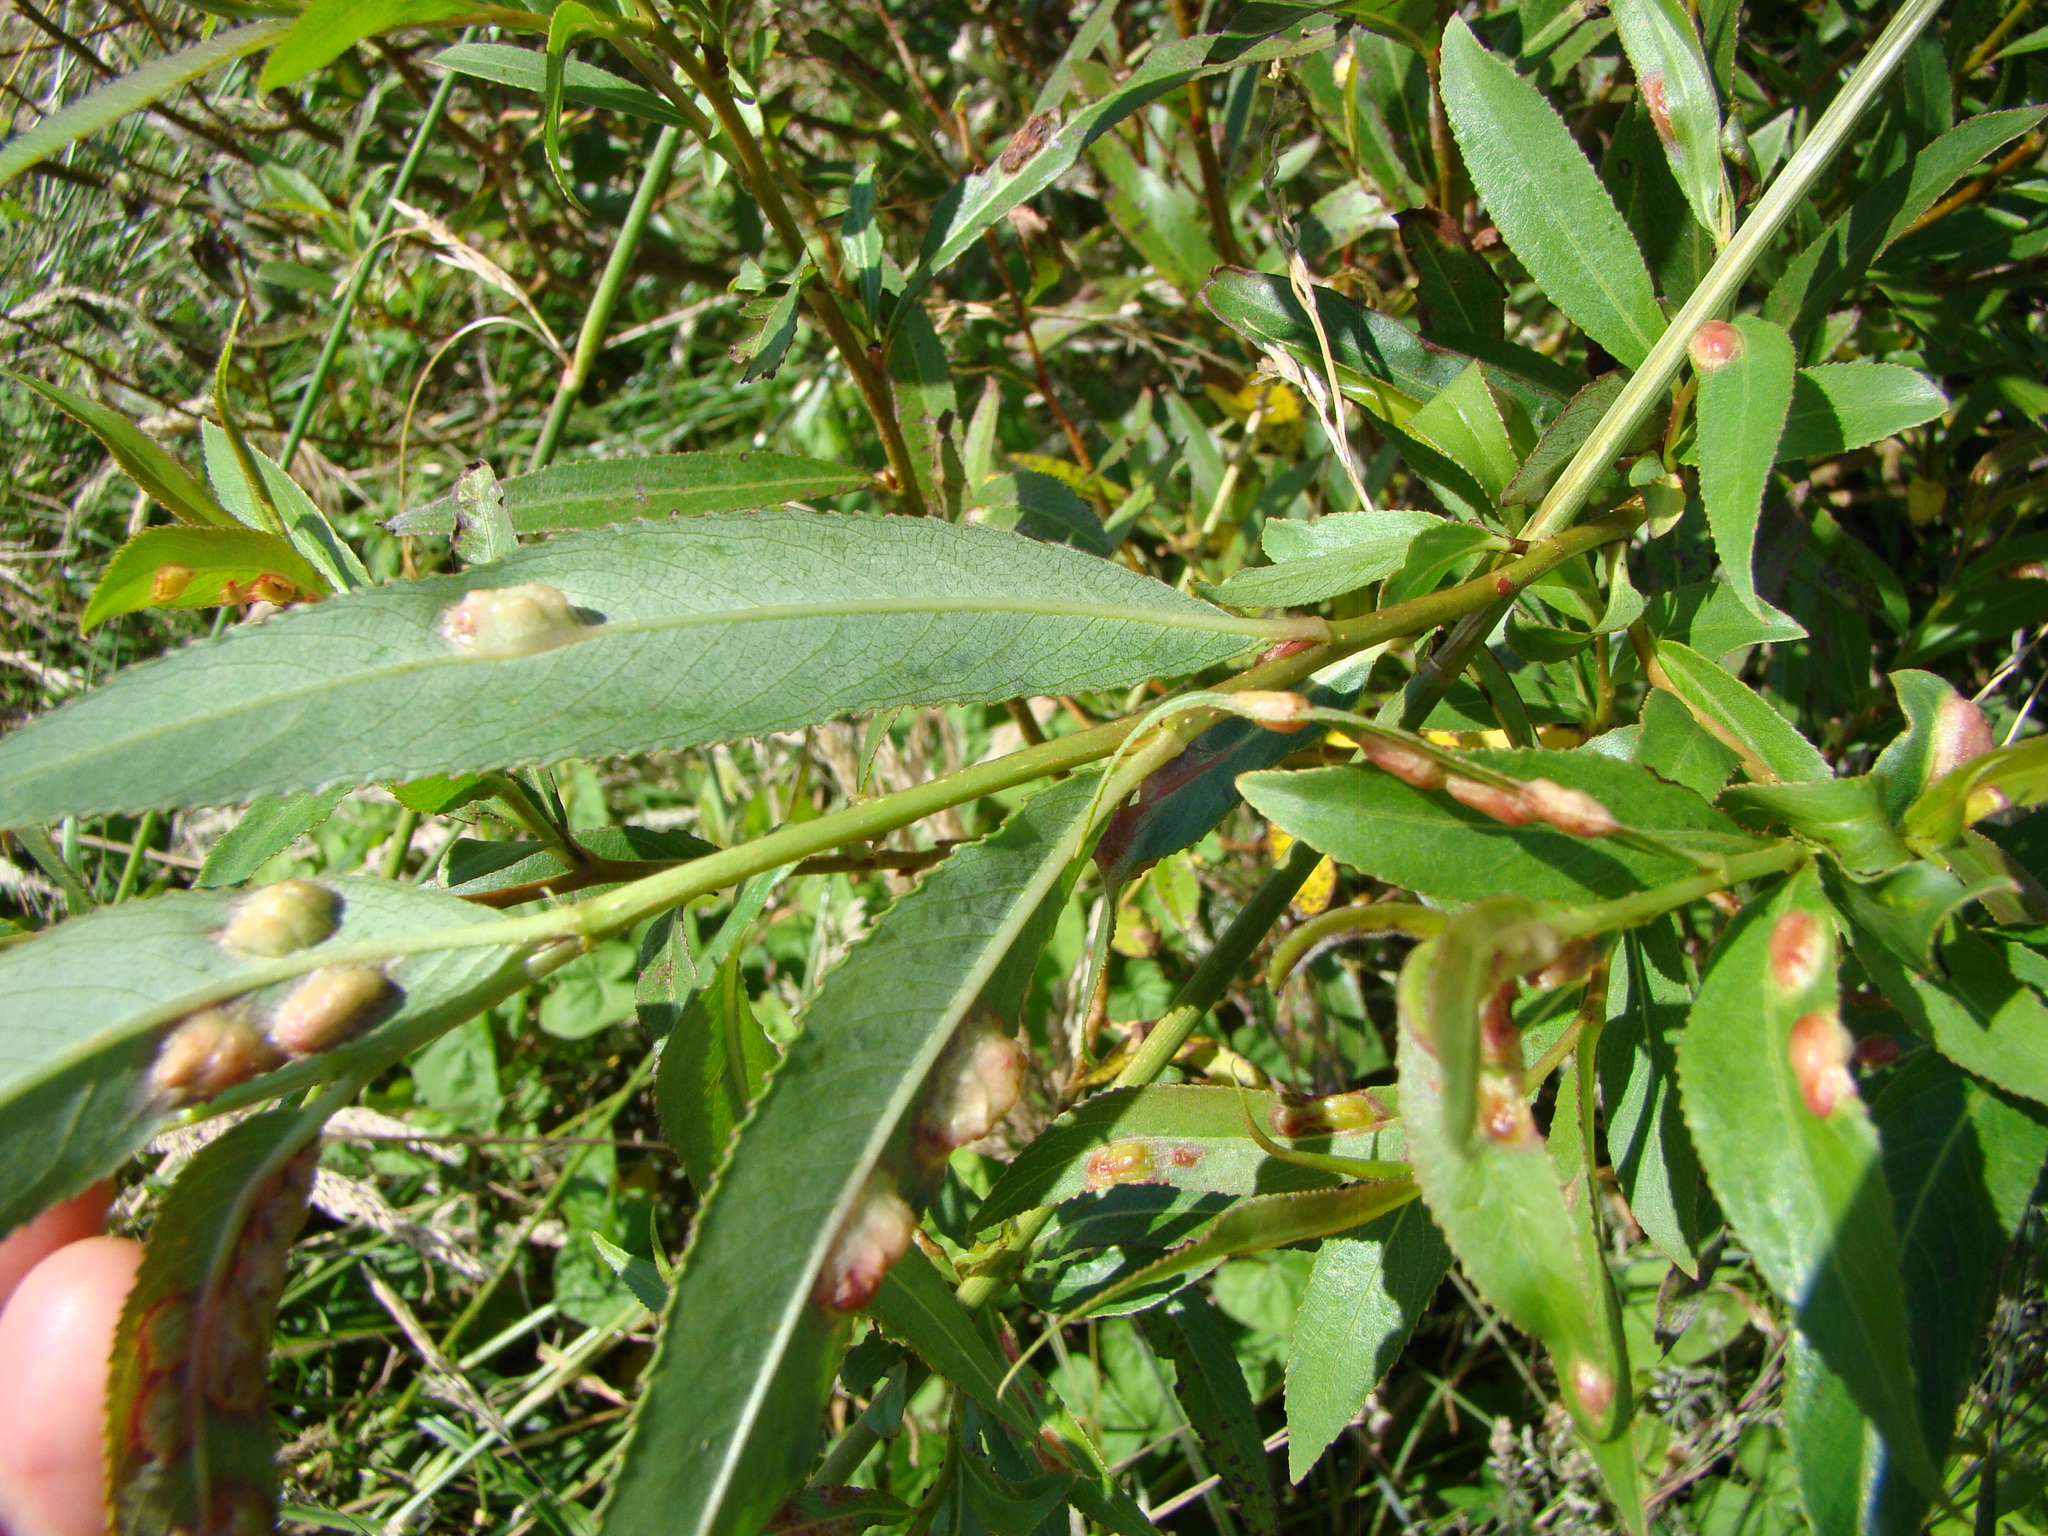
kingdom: Animalia
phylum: Arthropoda
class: Insecta
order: Hymenoptera
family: Tenthredinidae
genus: Pontania
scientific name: Pontania proxima
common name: Common sawfly
